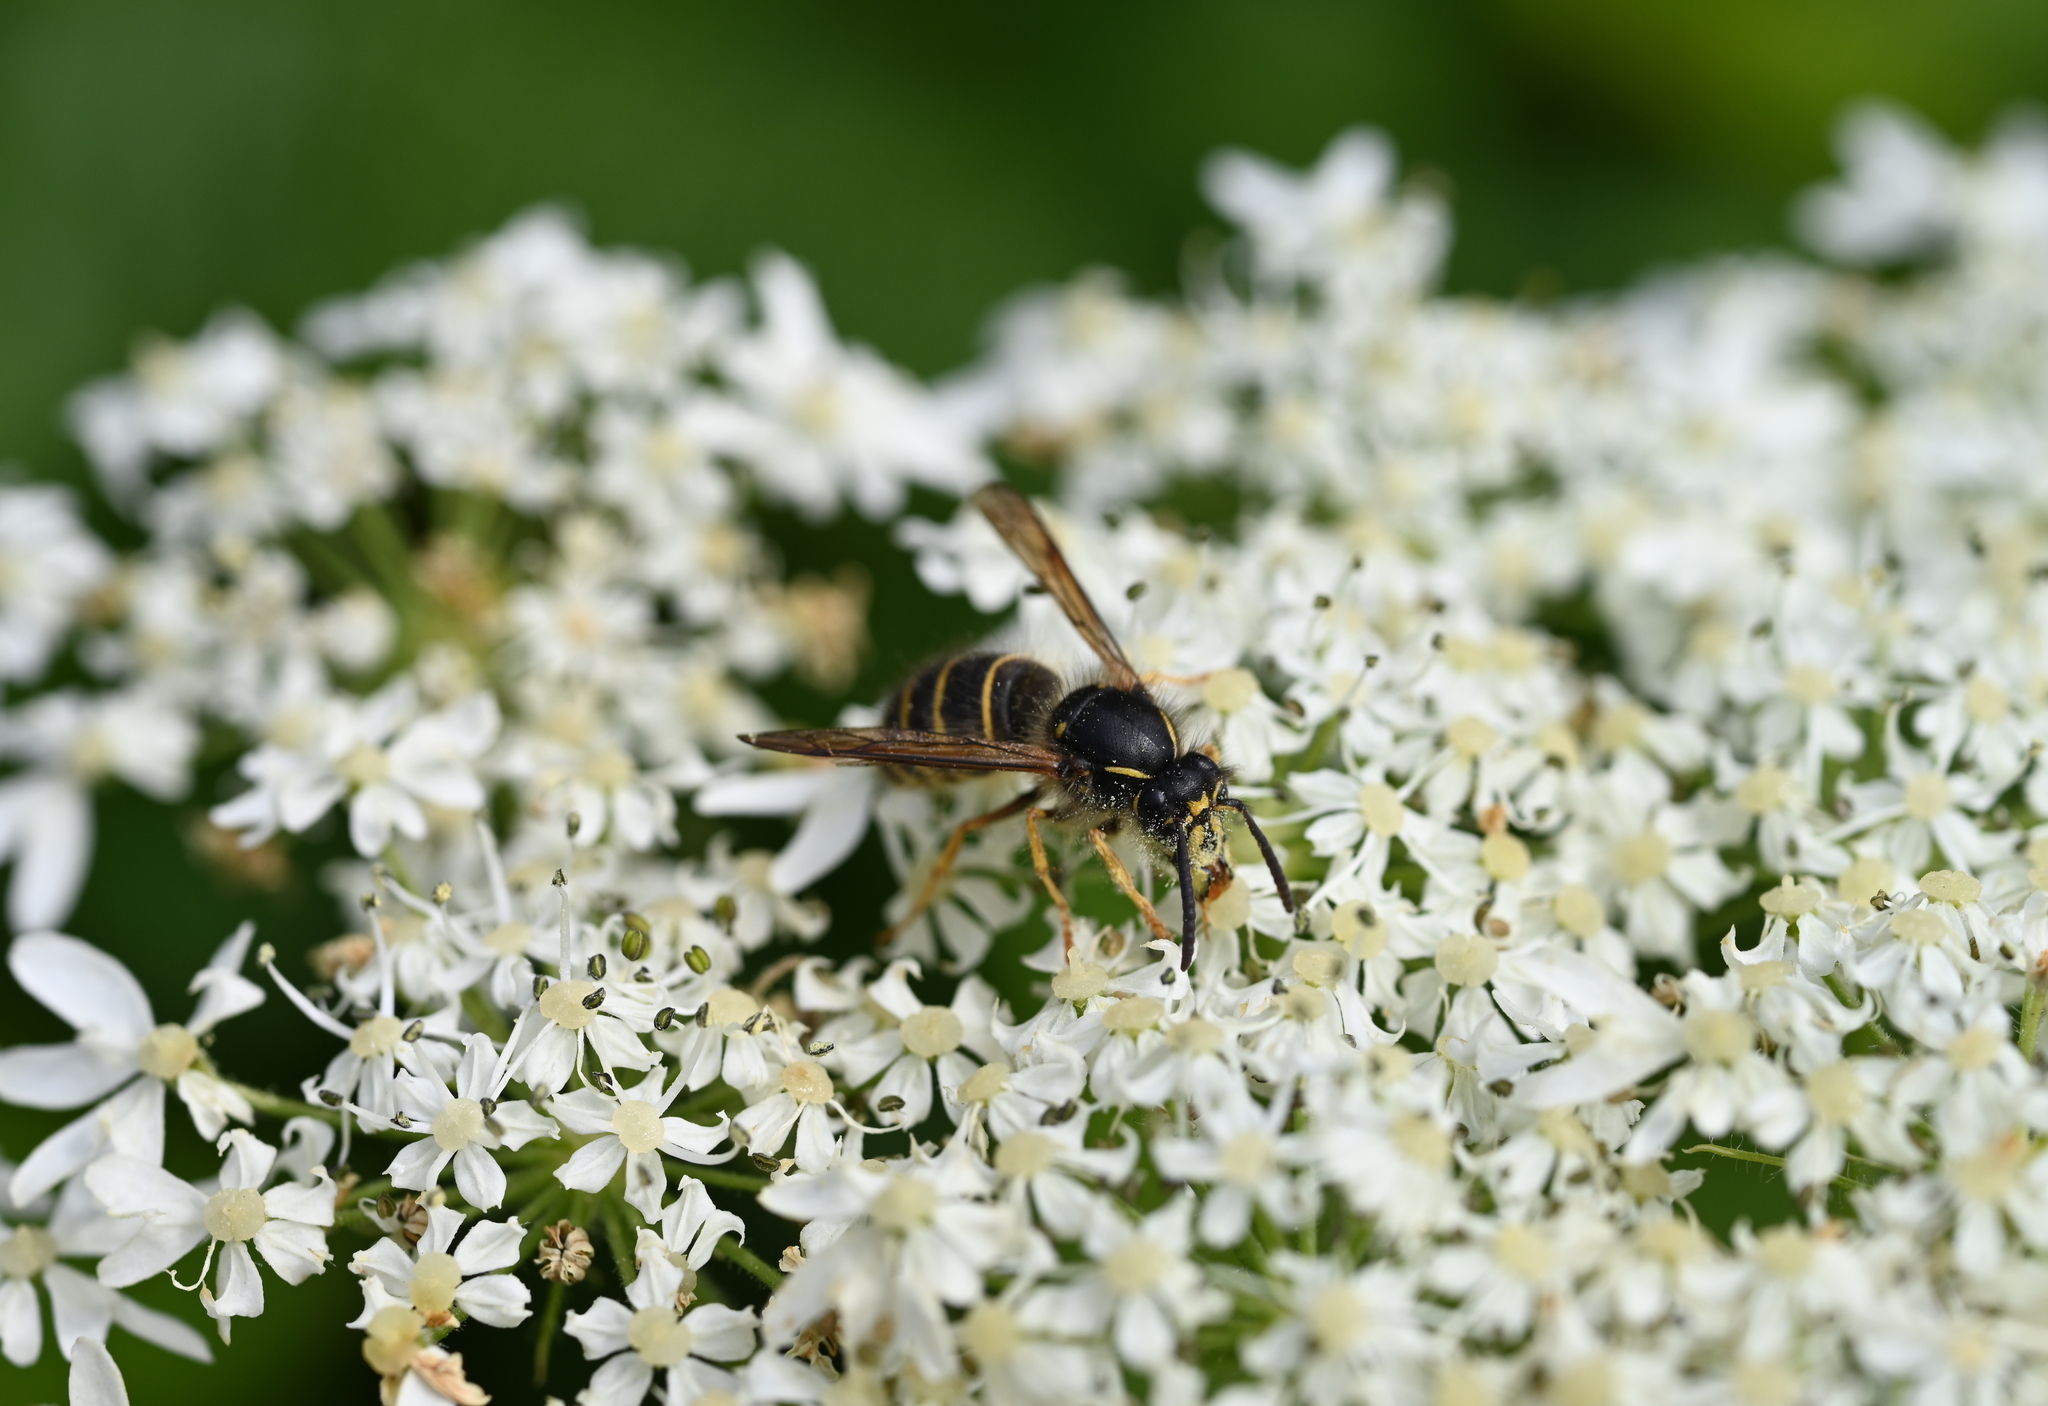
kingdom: Animalia
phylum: Arthropoda
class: Insecta
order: Hymenoptera
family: Vespidae
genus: Dolichovespula
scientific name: Dolichovespula norvegicoides
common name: Northern aerial yellowjacket
